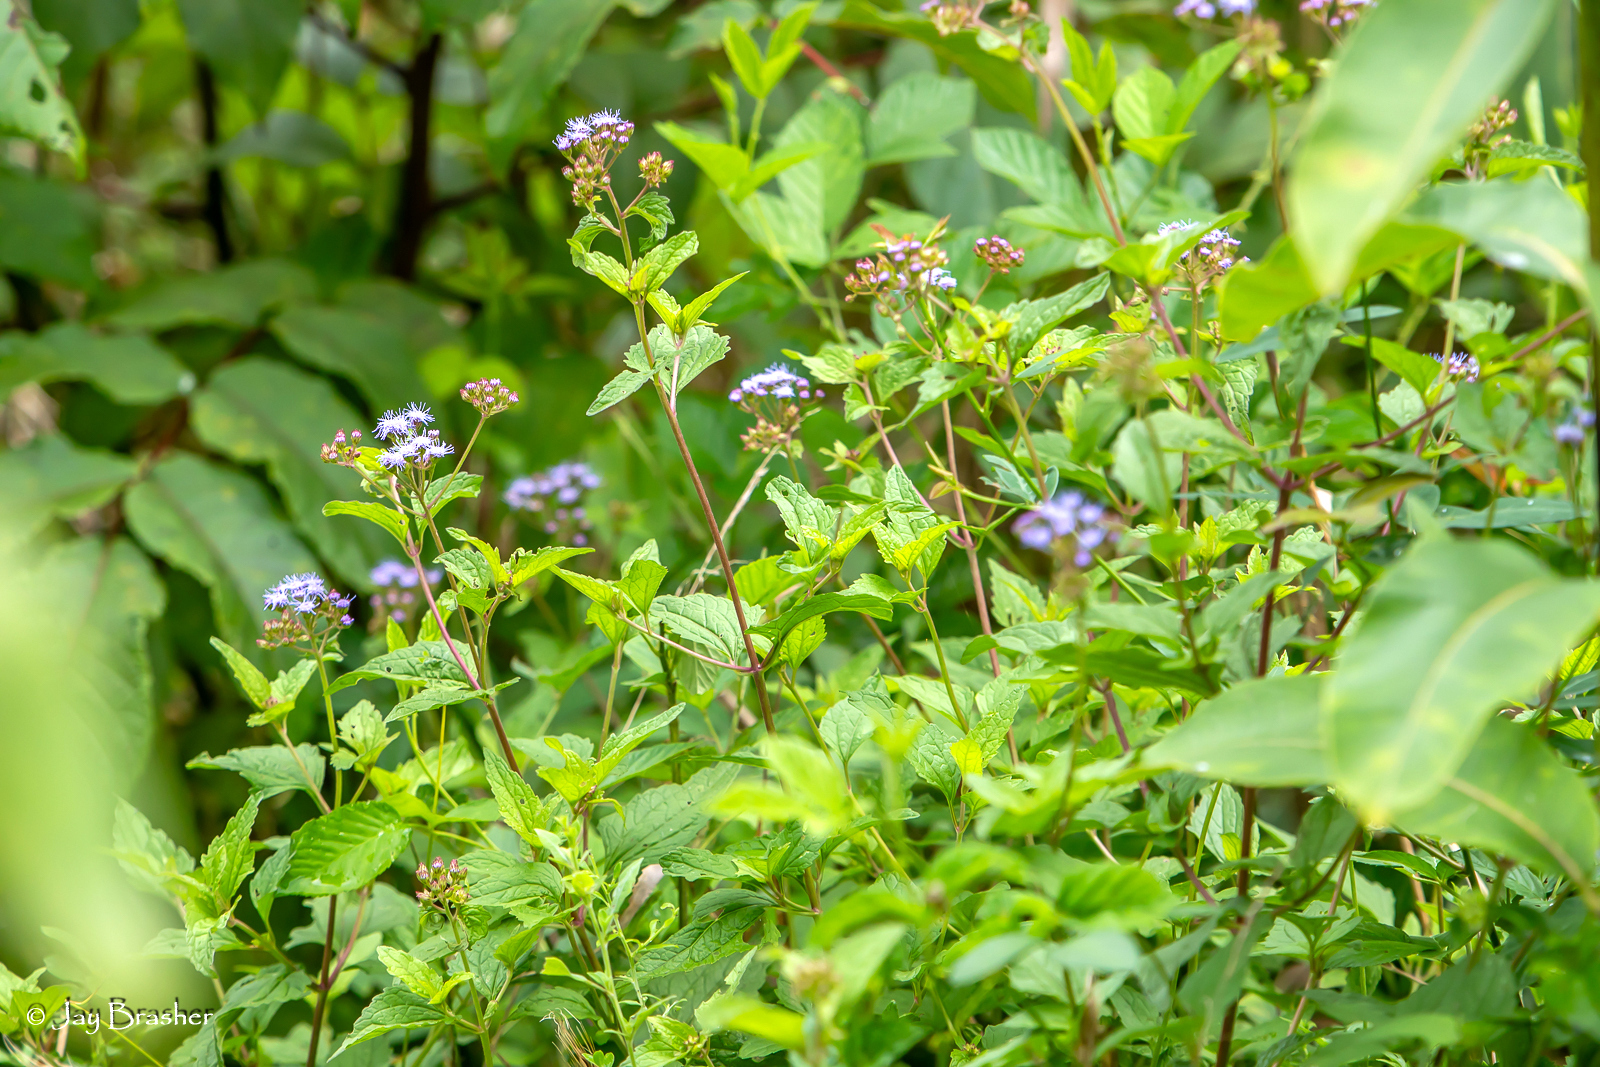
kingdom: Plantae
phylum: Tracheophyta
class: Magnoliopsida
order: Asterales
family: Asteraceae
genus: Conoclinium
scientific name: Conoclinium coelestinum
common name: Blue mistflower
